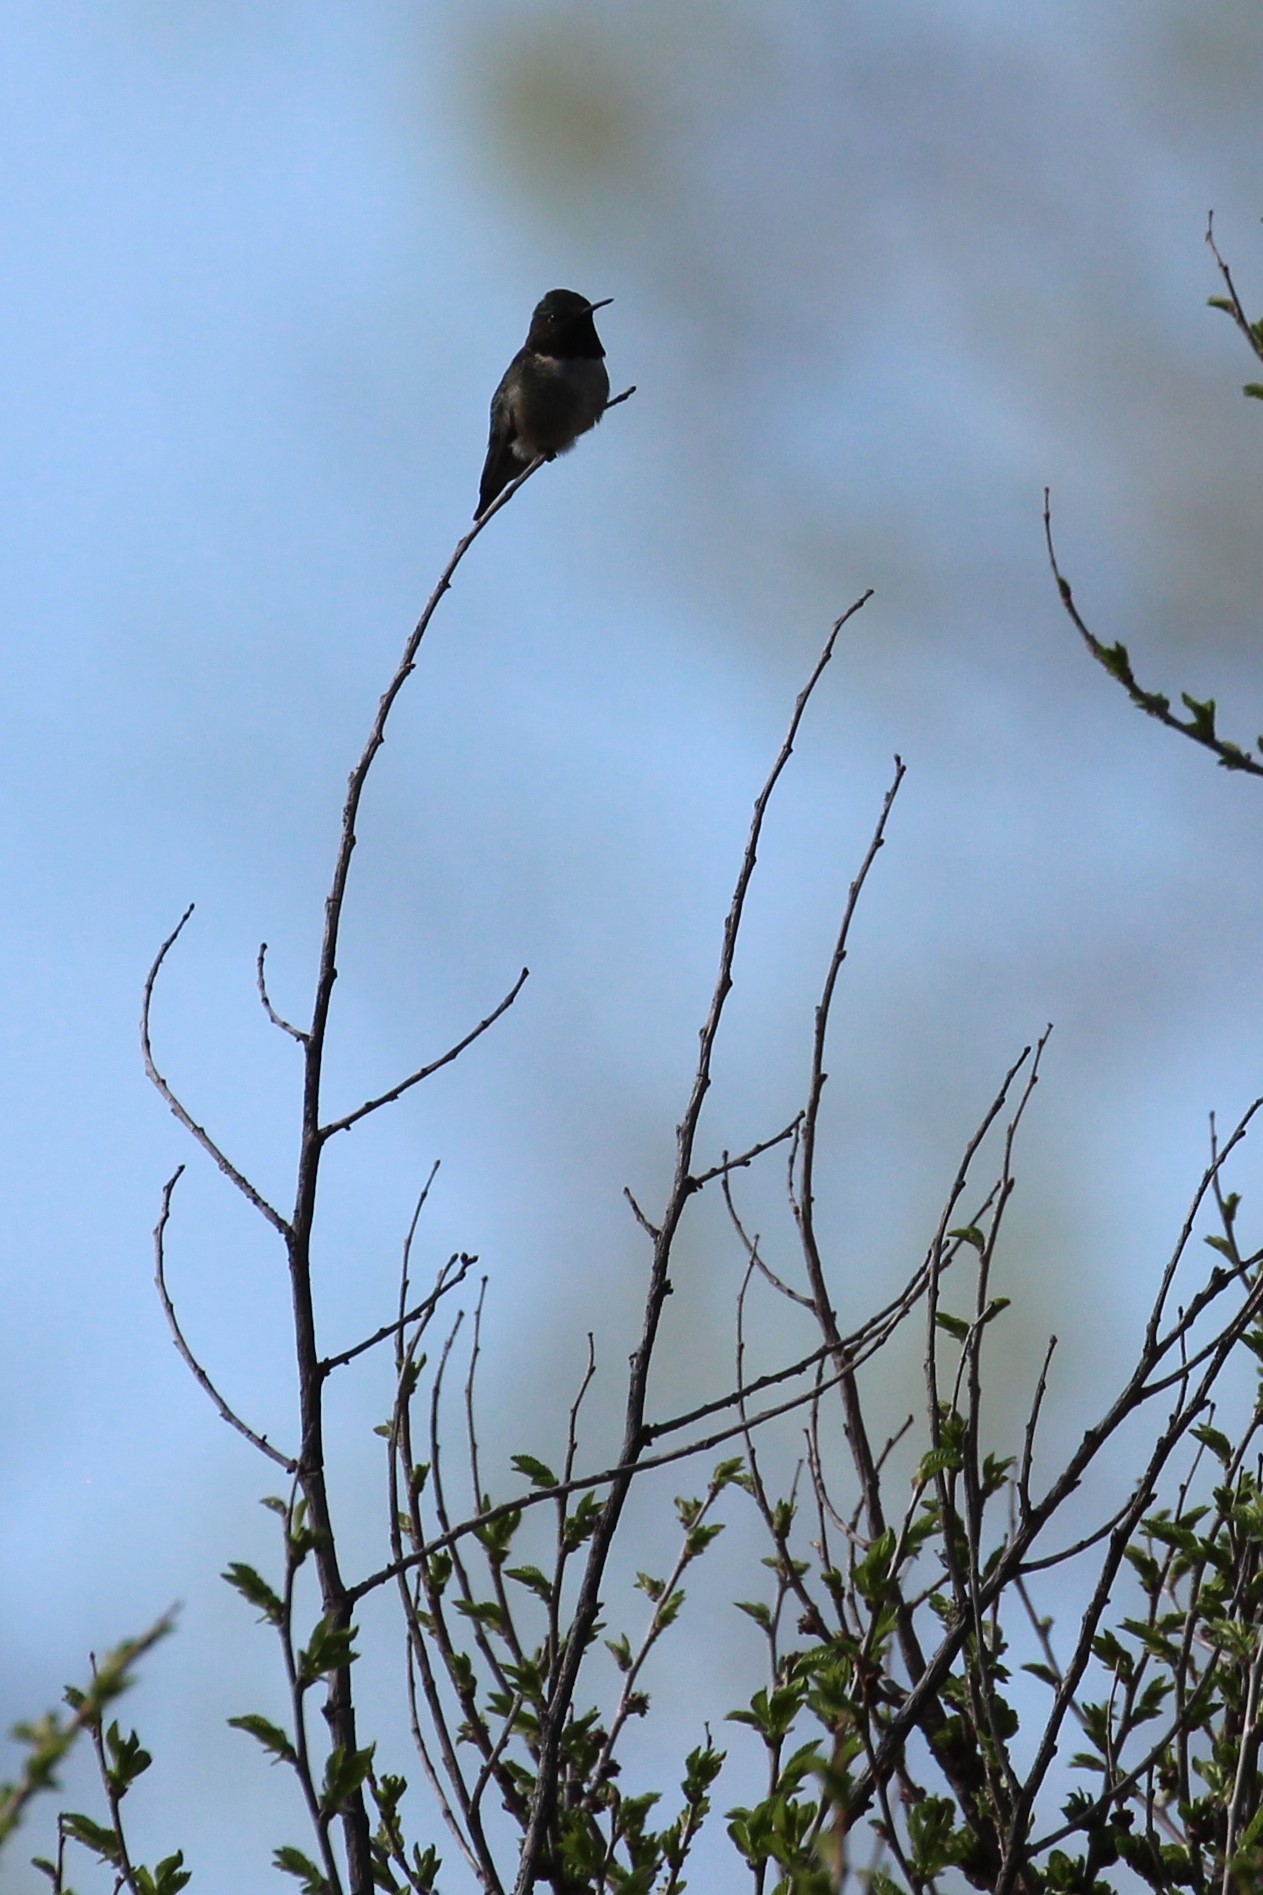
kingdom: Animalia
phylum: Chordata
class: Aves
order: Apodiformes
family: Trochilidae
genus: Archilochus
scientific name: Archilochus colubris
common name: Ruby-throated hummingbird
